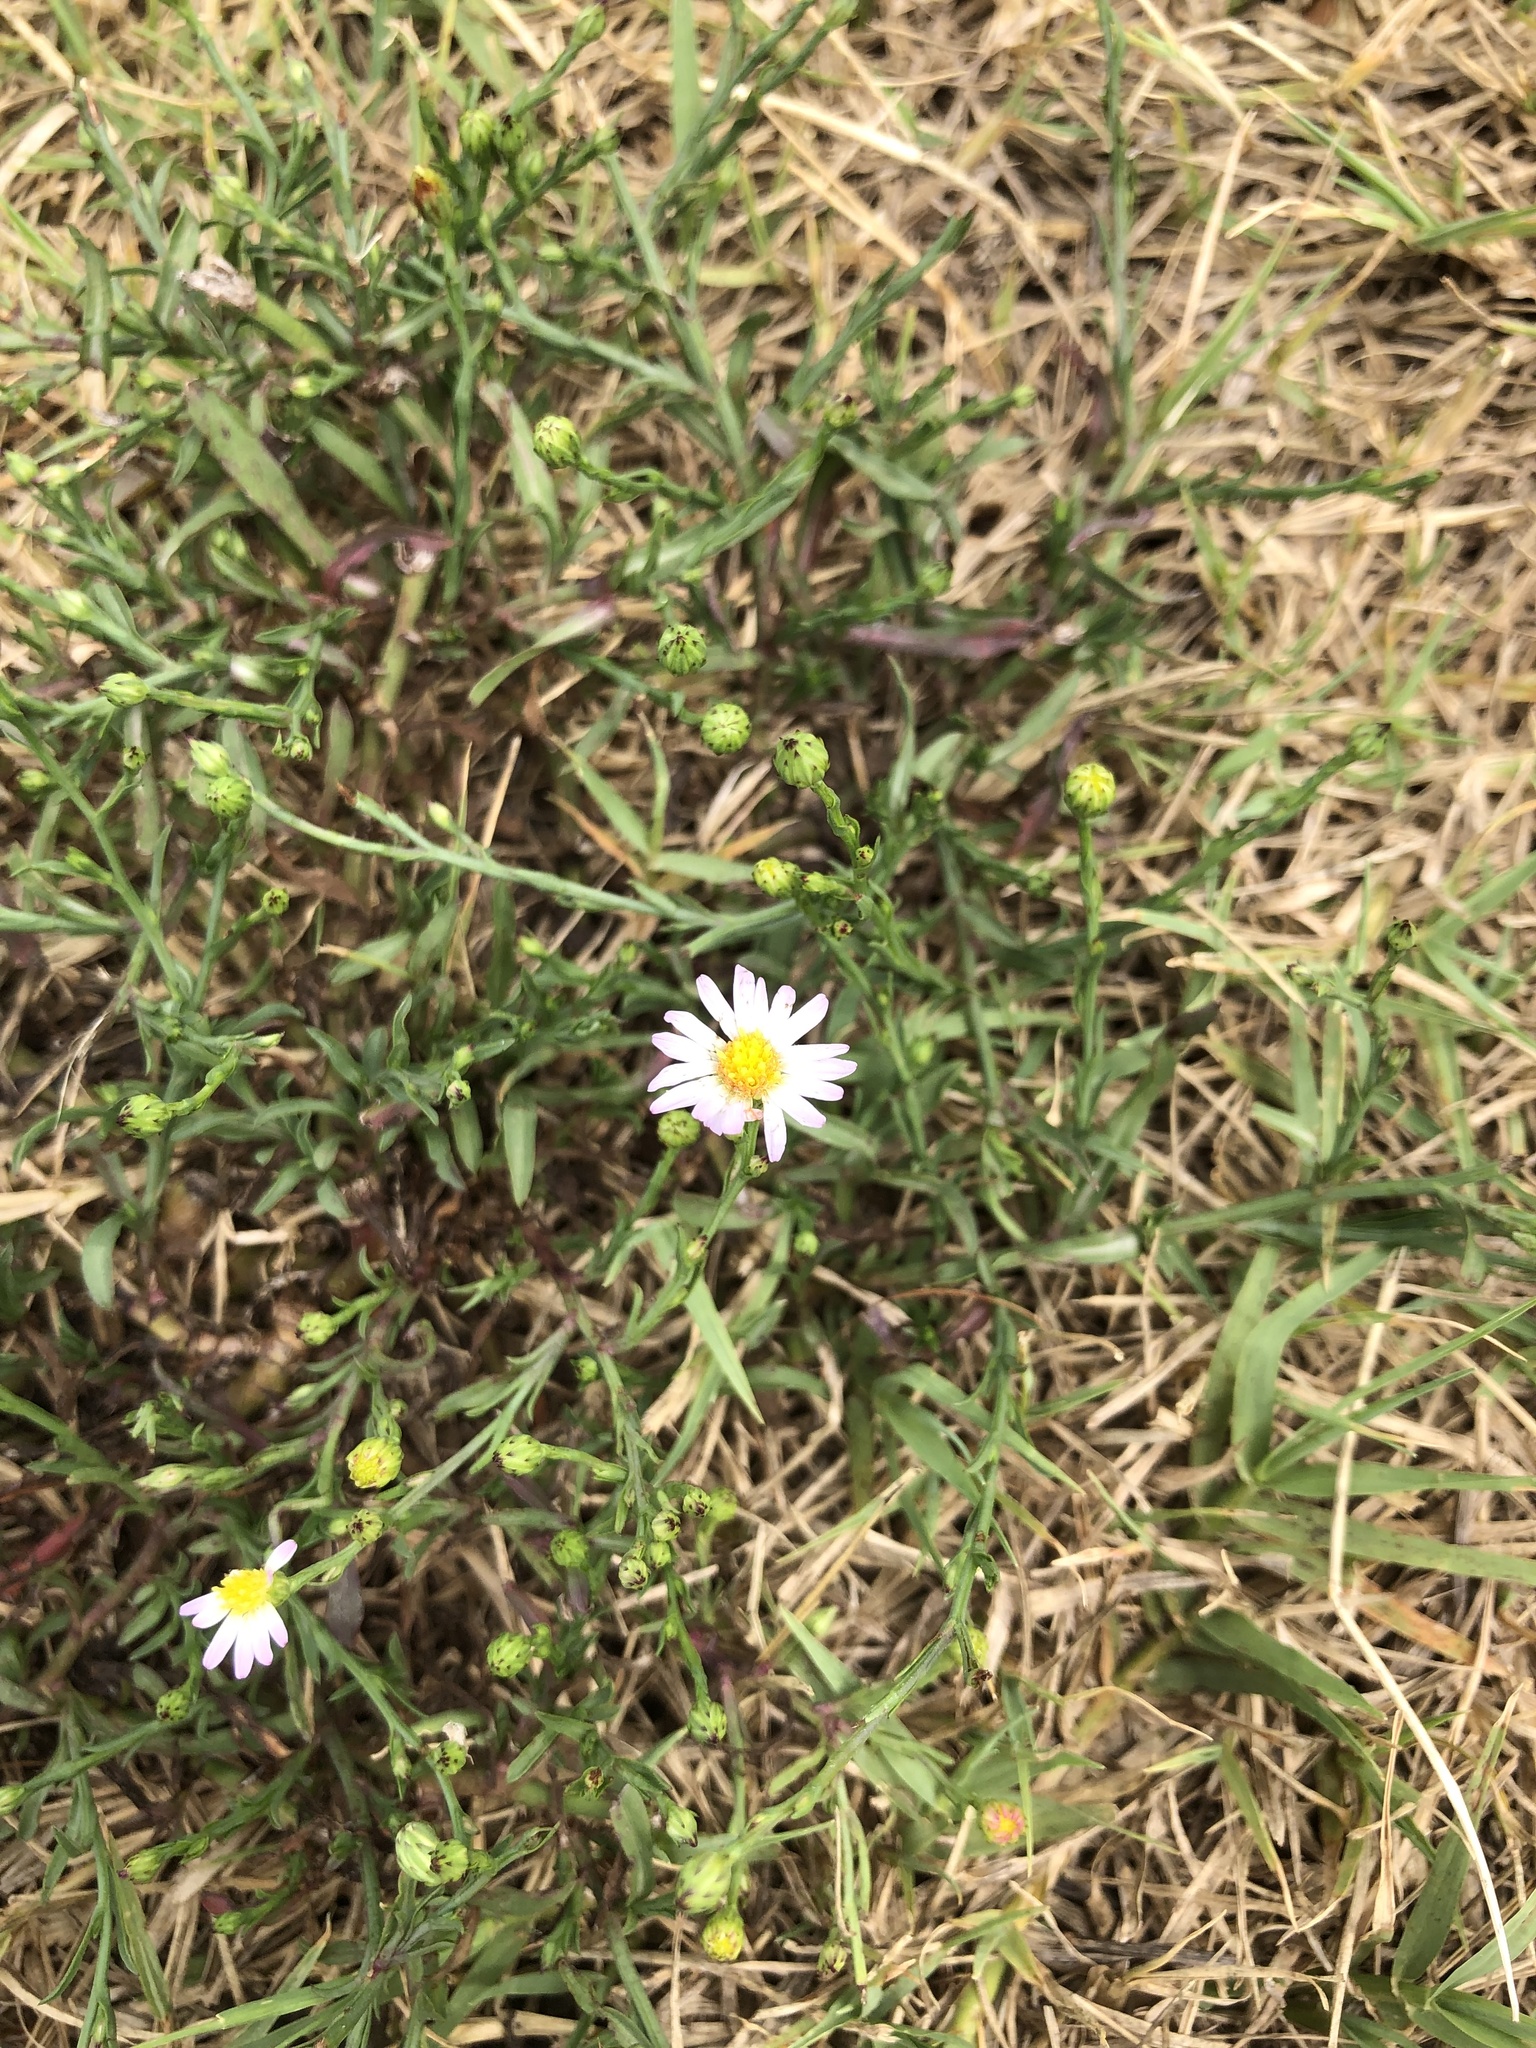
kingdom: Plantae
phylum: Tracheophyta
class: Magnoliopsida
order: Asterales
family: Asteraceae
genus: Symphyotrichum
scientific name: Symphyotrichum divaricatum
